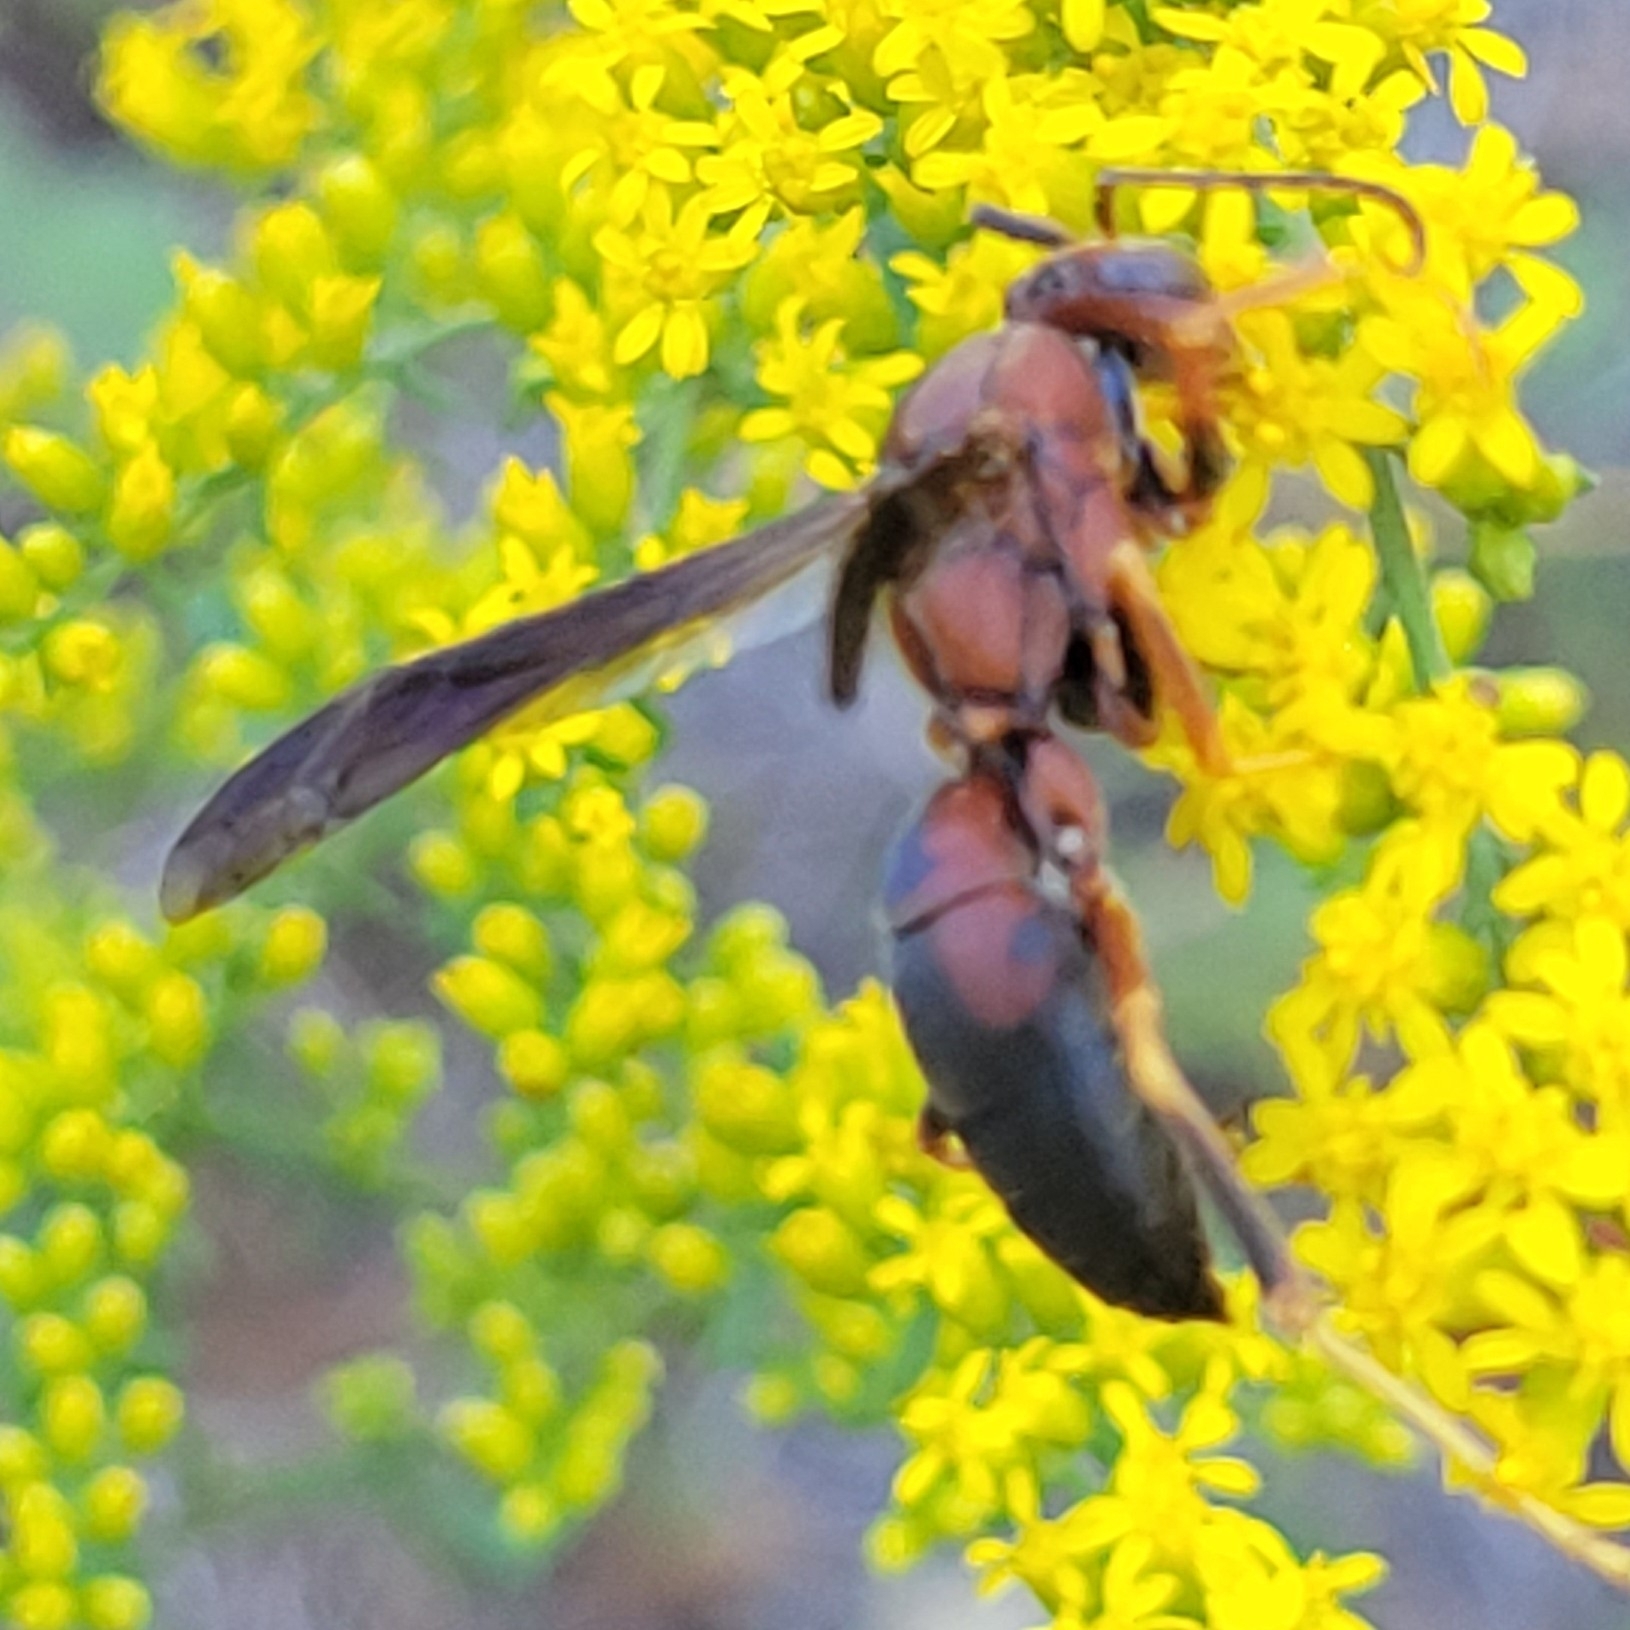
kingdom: Animalia
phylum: Arthropoda
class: Insecta
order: Hymenoptera
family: Eumenidae
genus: Polistes
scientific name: Polistes metricus
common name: Metric paper wasp
